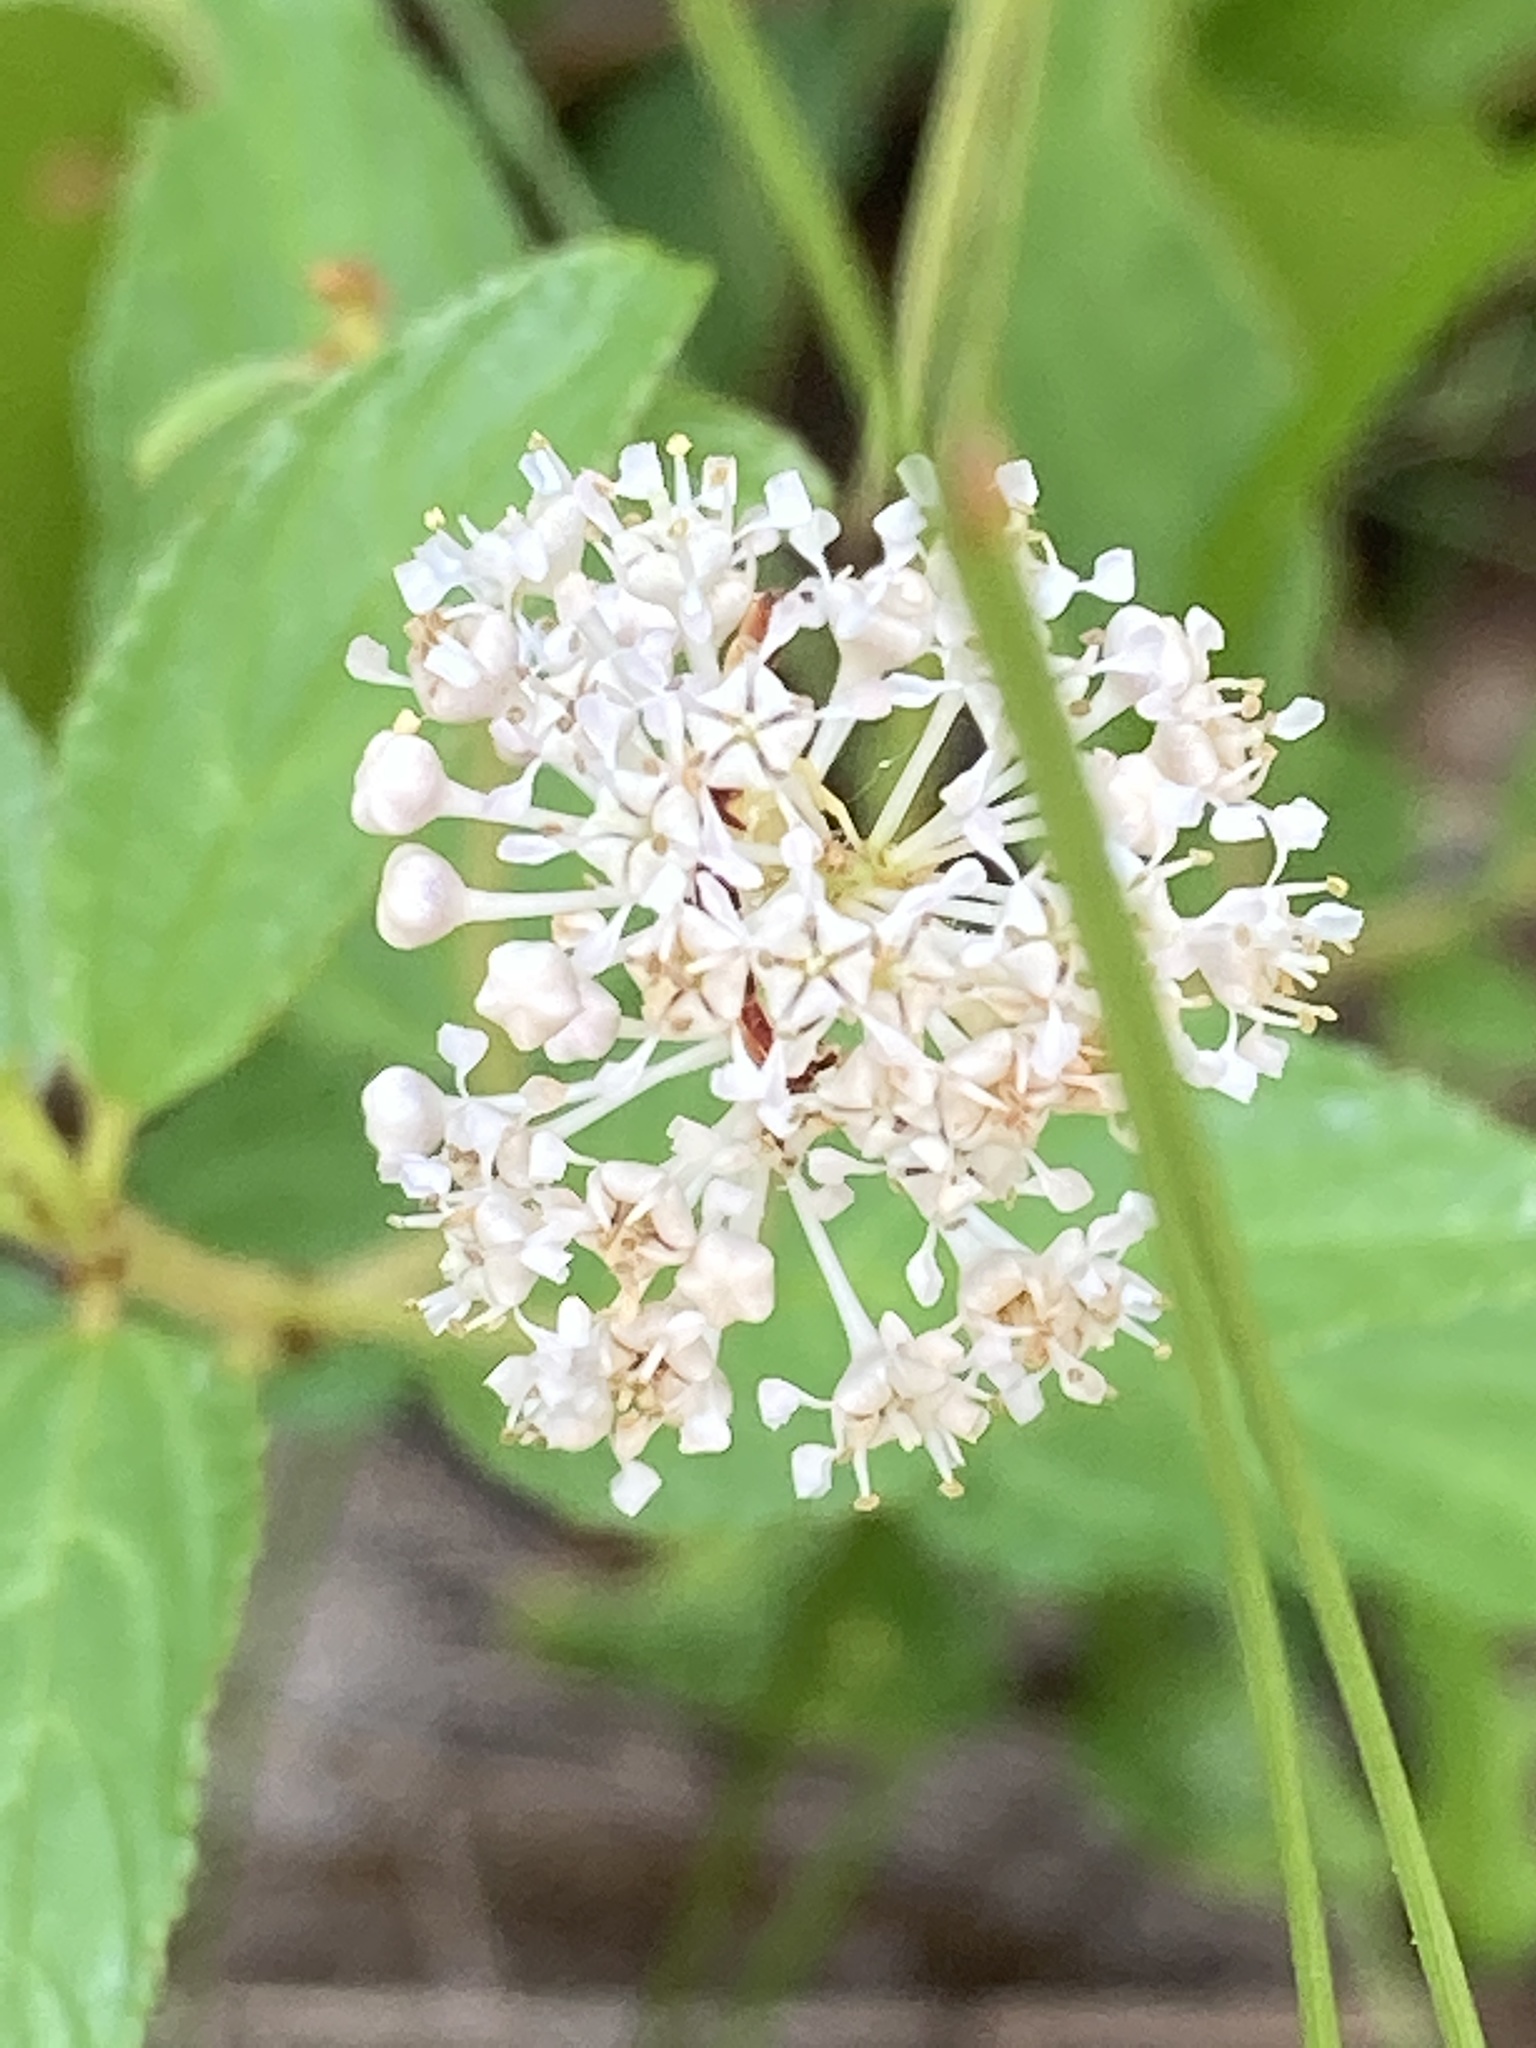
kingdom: Plantae
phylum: Tracheophyta
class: Magnoliopsida
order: Rosales
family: Rhamnaceae
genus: Ceanothus
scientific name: Ceanothus americanus
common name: Redroot
